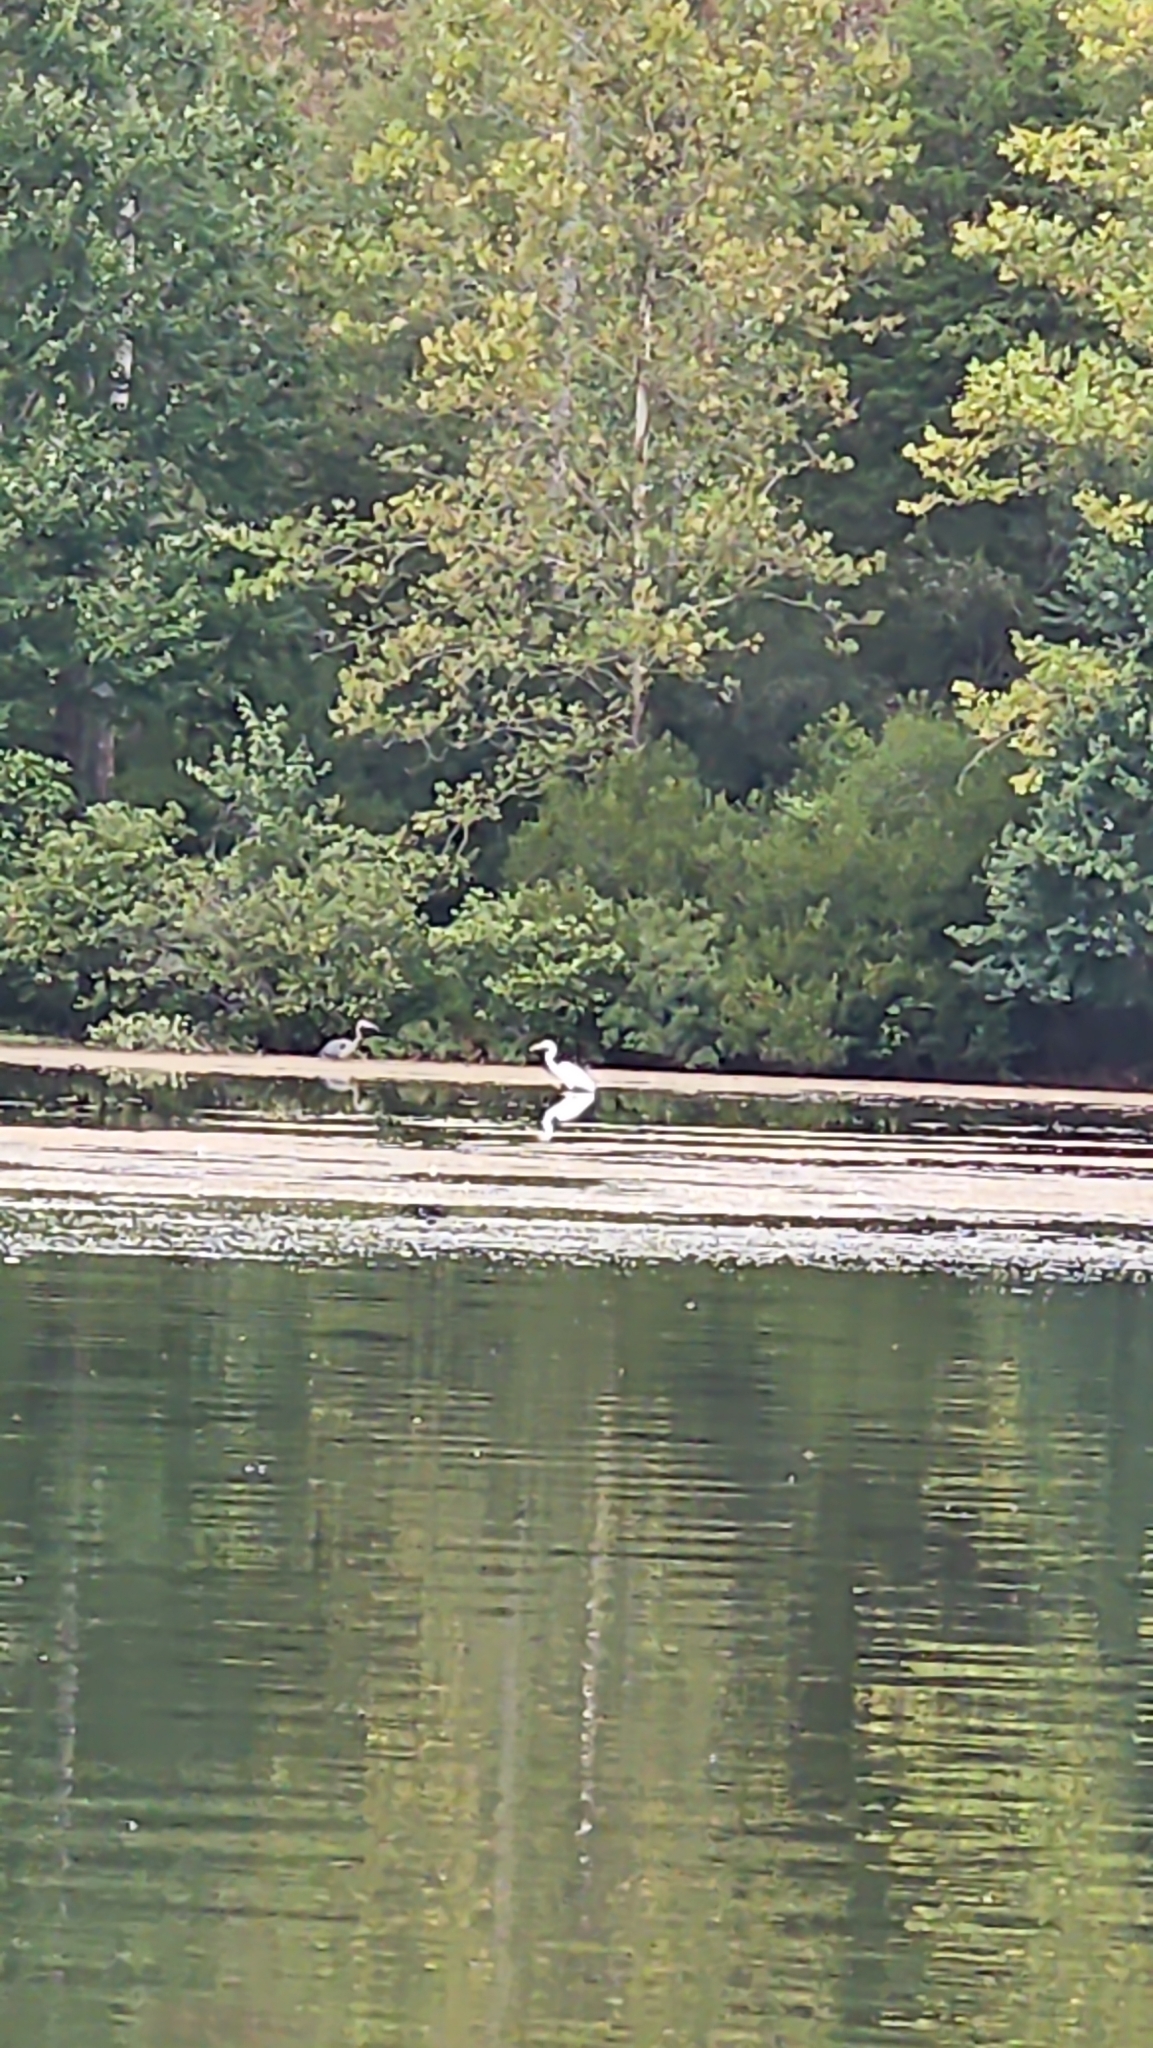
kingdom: Animalia
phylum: Chordata
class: Aves
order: Pelecaniformes
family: Ardeidae
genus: Ardea
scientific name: Ardea alba
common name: Great egret
